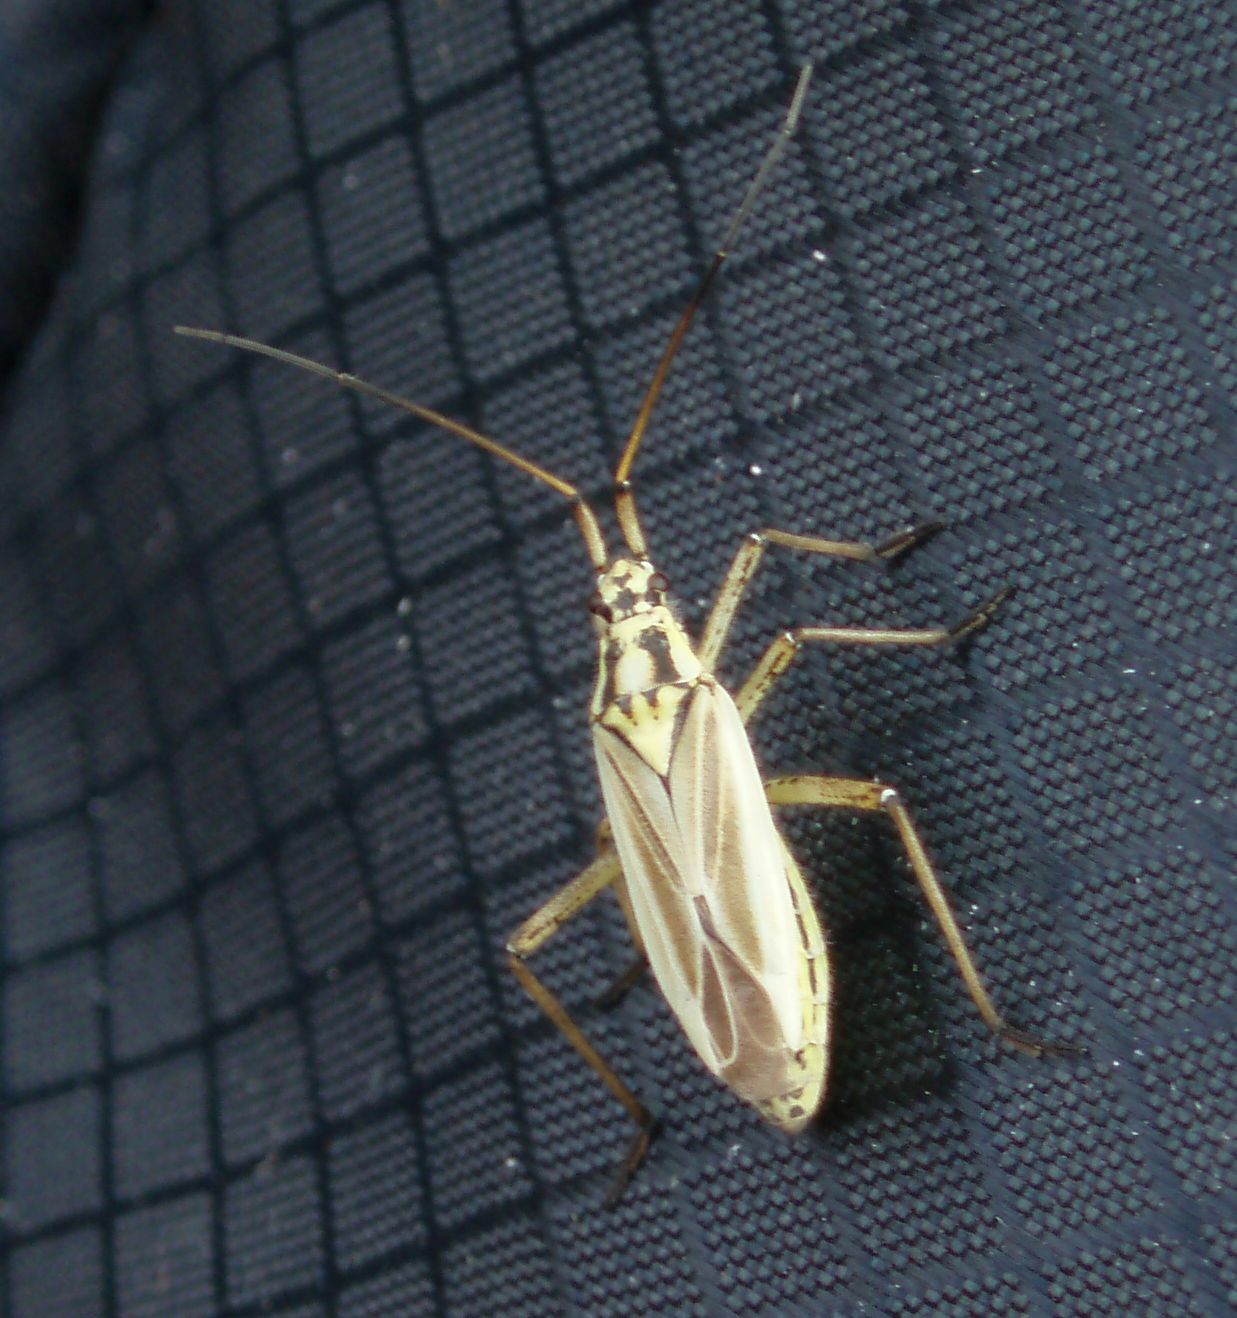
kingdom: Animalia
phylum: Arthropoda
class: Insecta
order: Hemiptera
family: Miridae
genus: Leptopterna
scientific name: Leptopterna dolabrata
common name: Meadow plant bug
